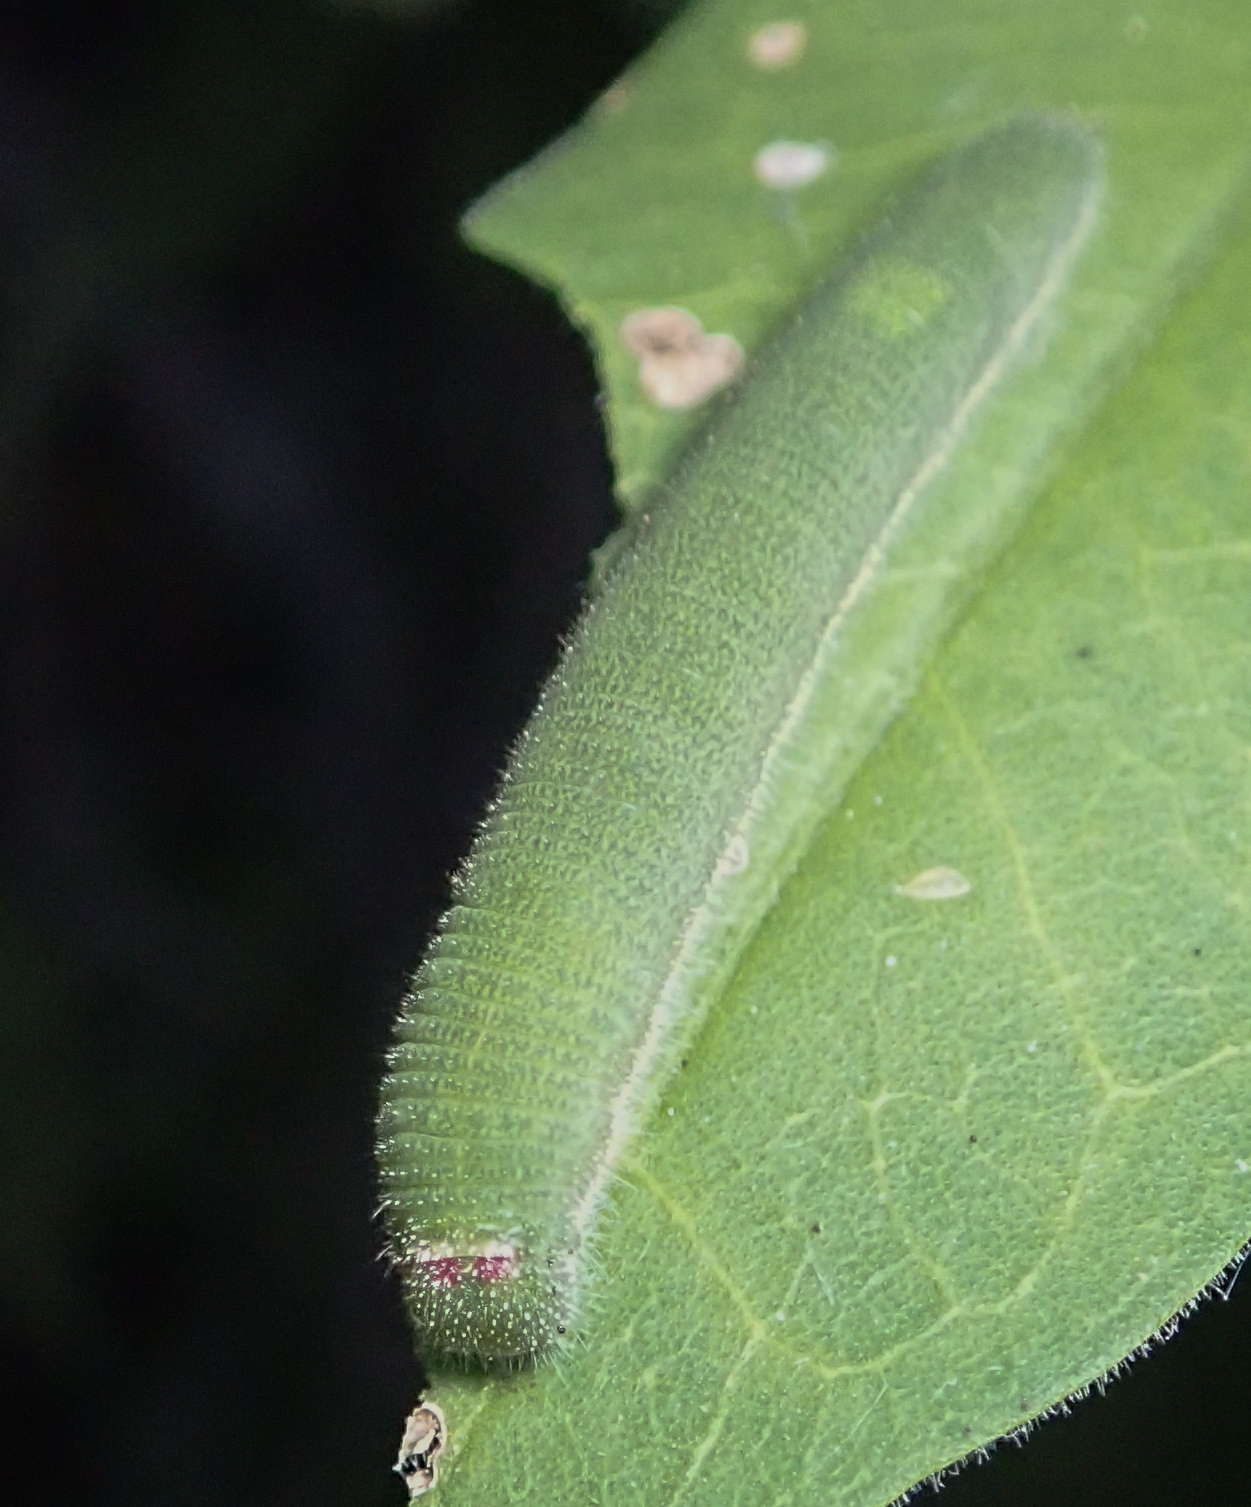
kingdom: Animalia
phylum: Arthropoda
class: Insecta
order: Lepidoptera
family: Pieridae
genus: Belenois
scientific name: Belenois gidica
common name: Pointed caper white
